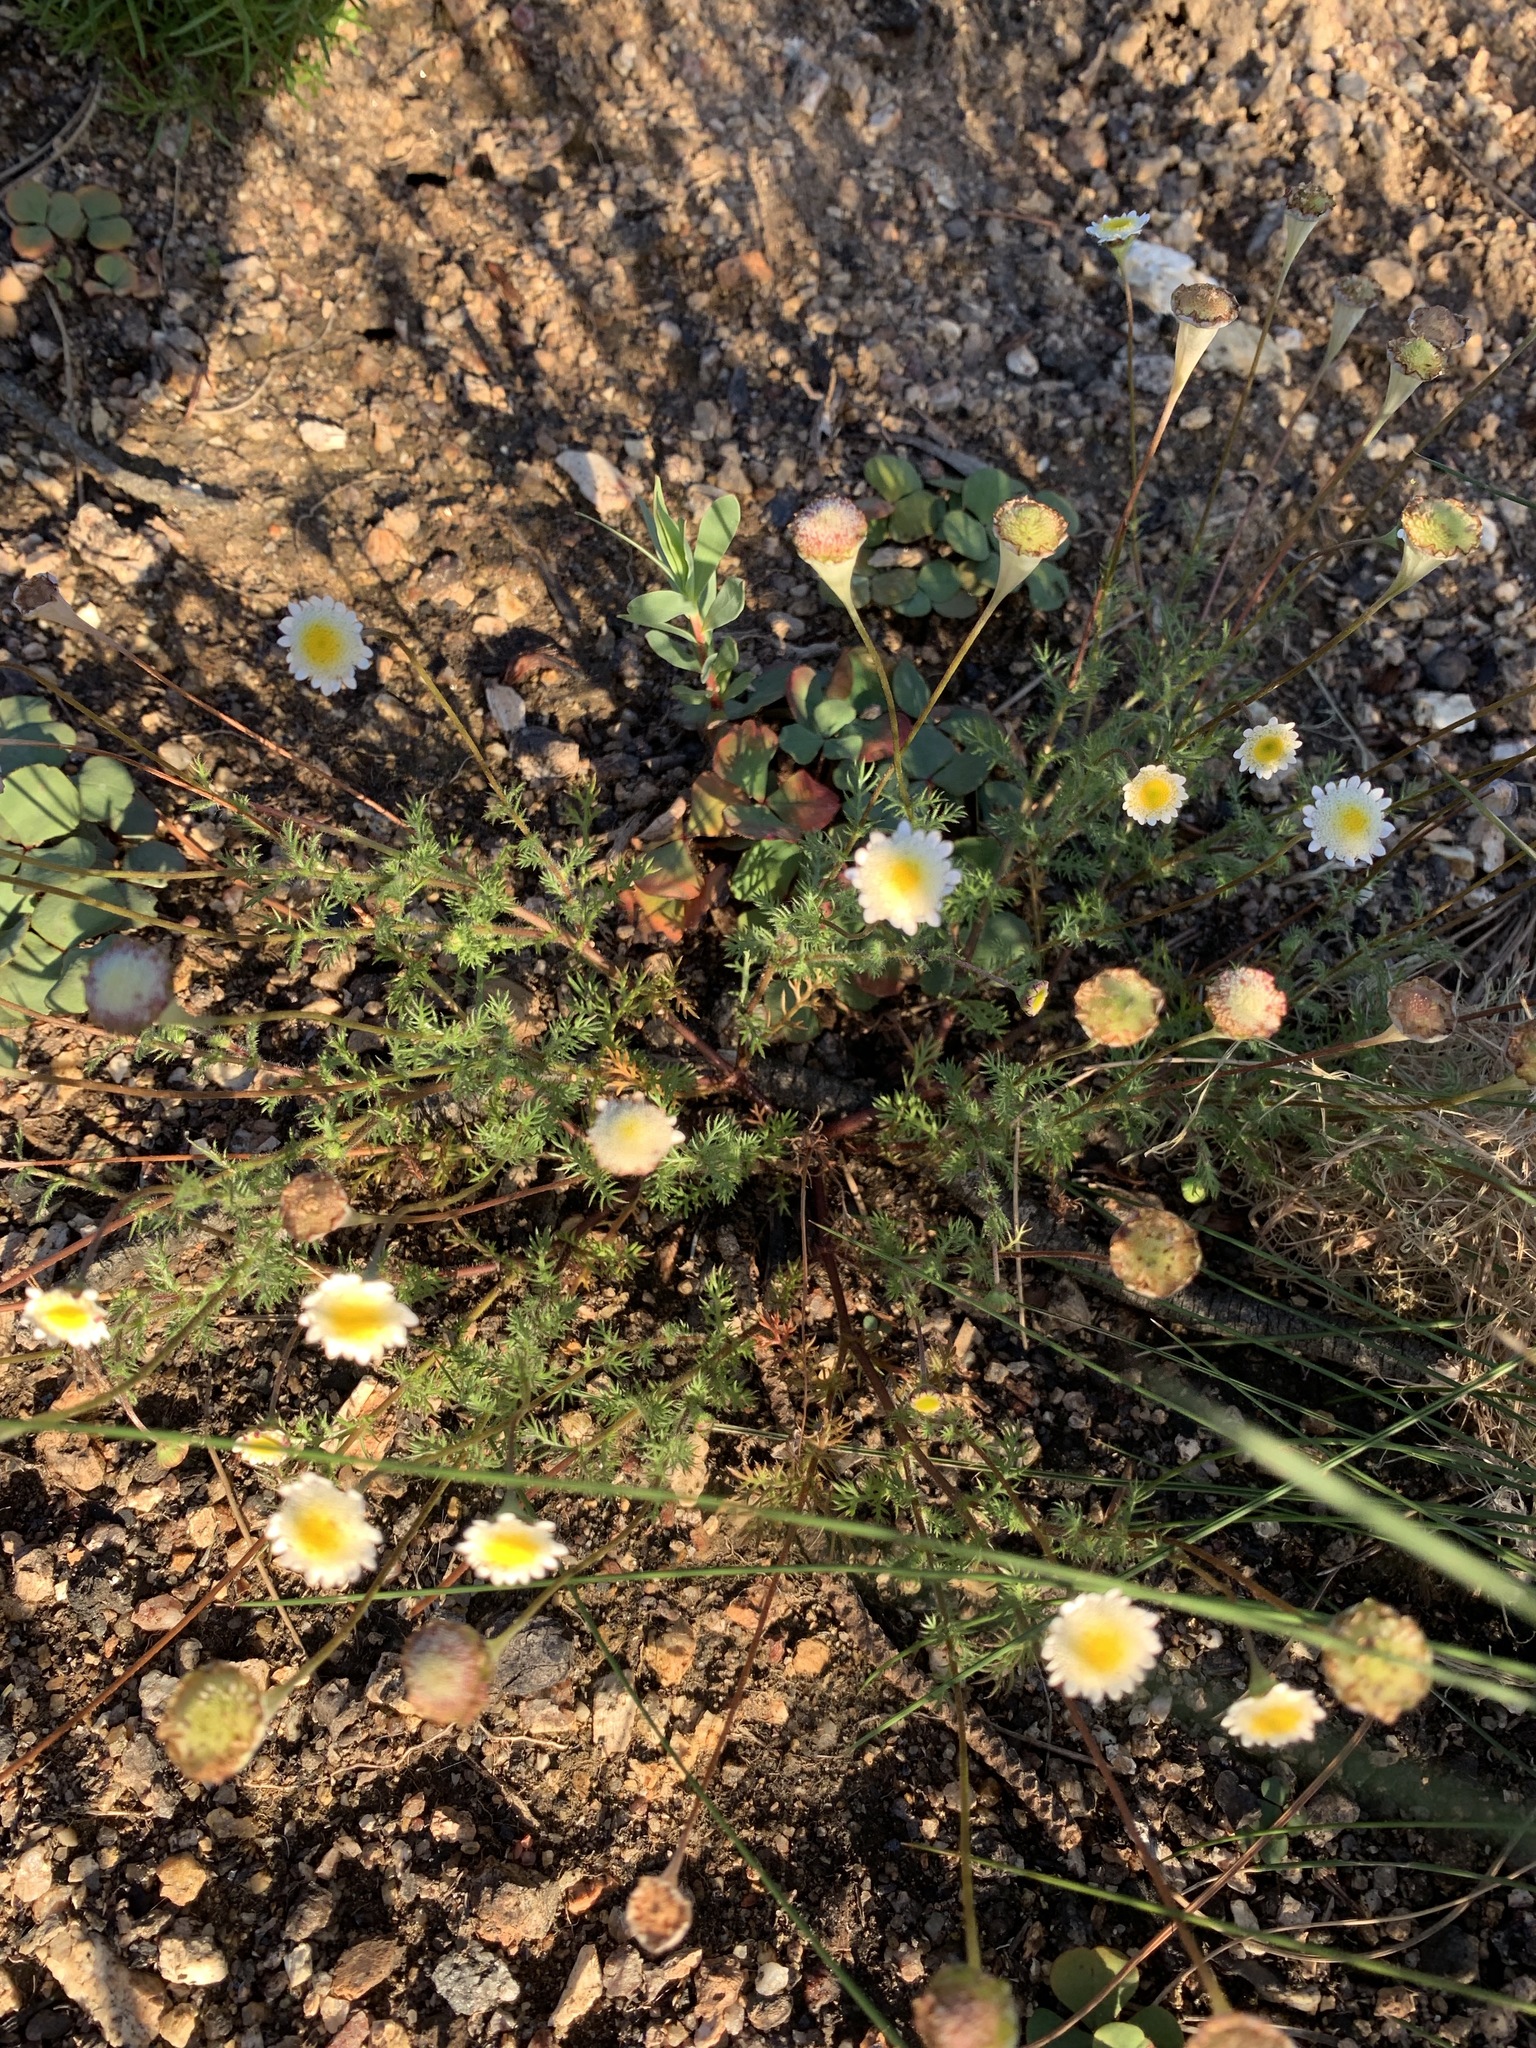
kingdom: Plantae
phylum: Tracheophyta
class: Magnoliopsida
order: Asterales
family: Asteraceae
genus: Cotula
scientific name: Cotula turbinata
